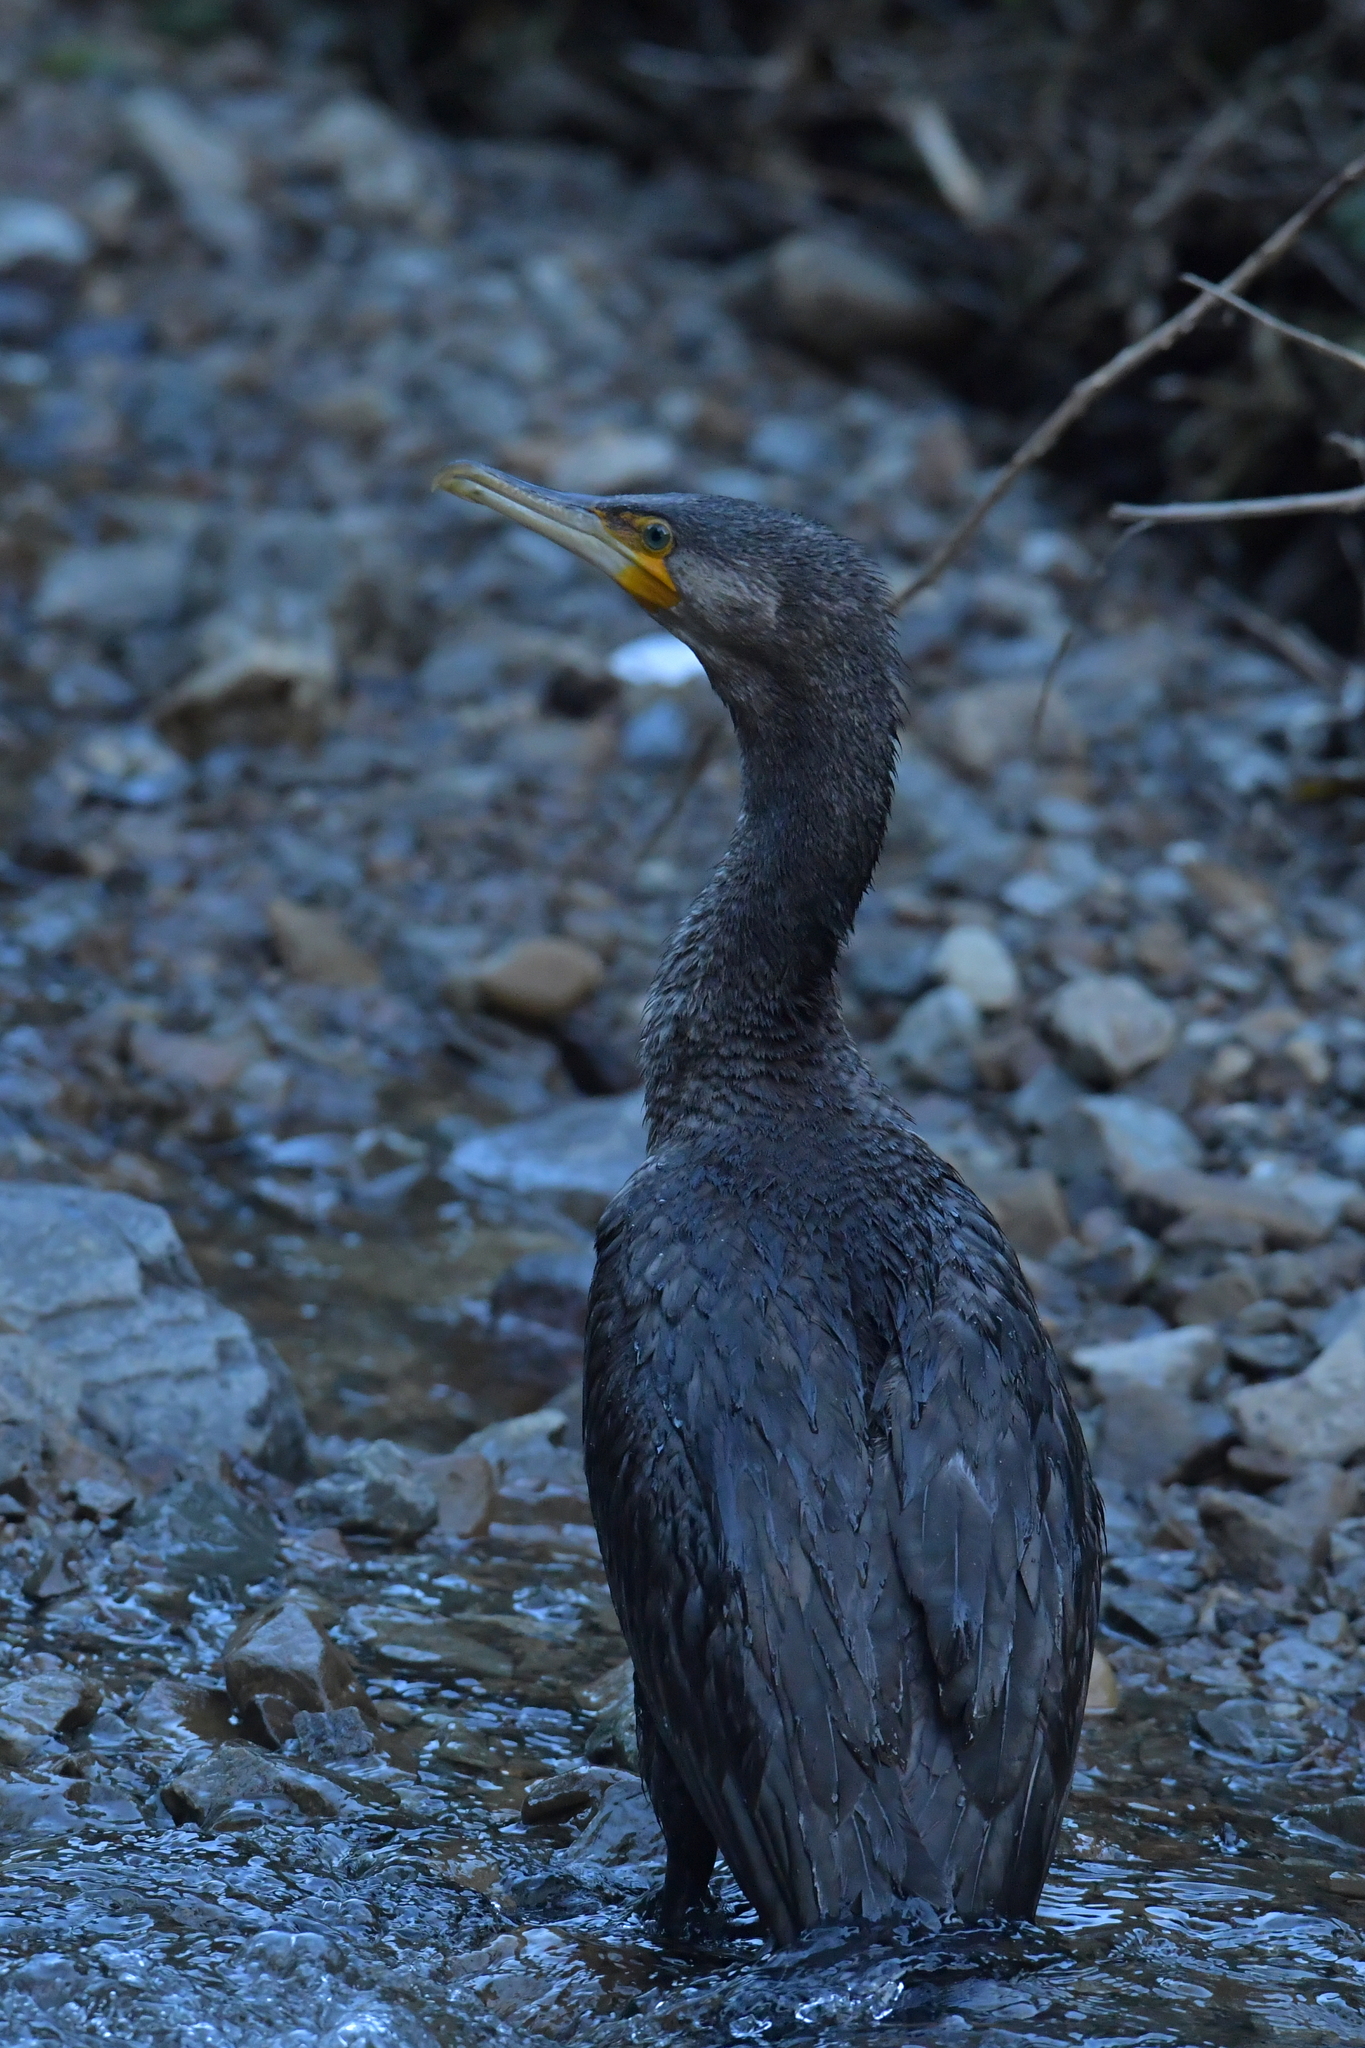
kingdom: Animalia
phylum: Chordata
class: Aves
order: Suliformes
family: Phalacrocoracidae
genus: Phalacrocorax
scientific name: Phalacrocorax carbo
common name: Great cormorant
